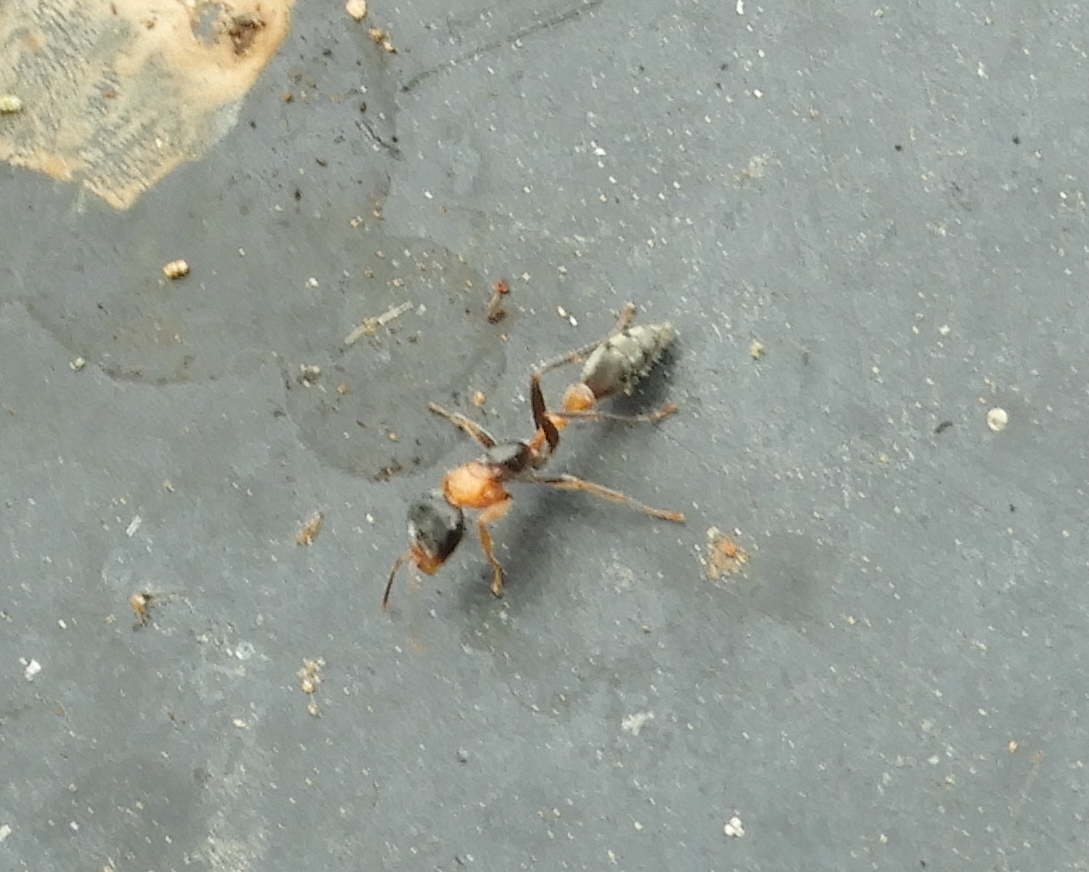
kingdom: Animalia
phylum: Arthropoda
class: Insecta
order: Hymenoptera
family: Formicidae
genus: Pseudomyrmex
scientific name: Pseudomyrmex gracilis
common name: Graceful twig ant
